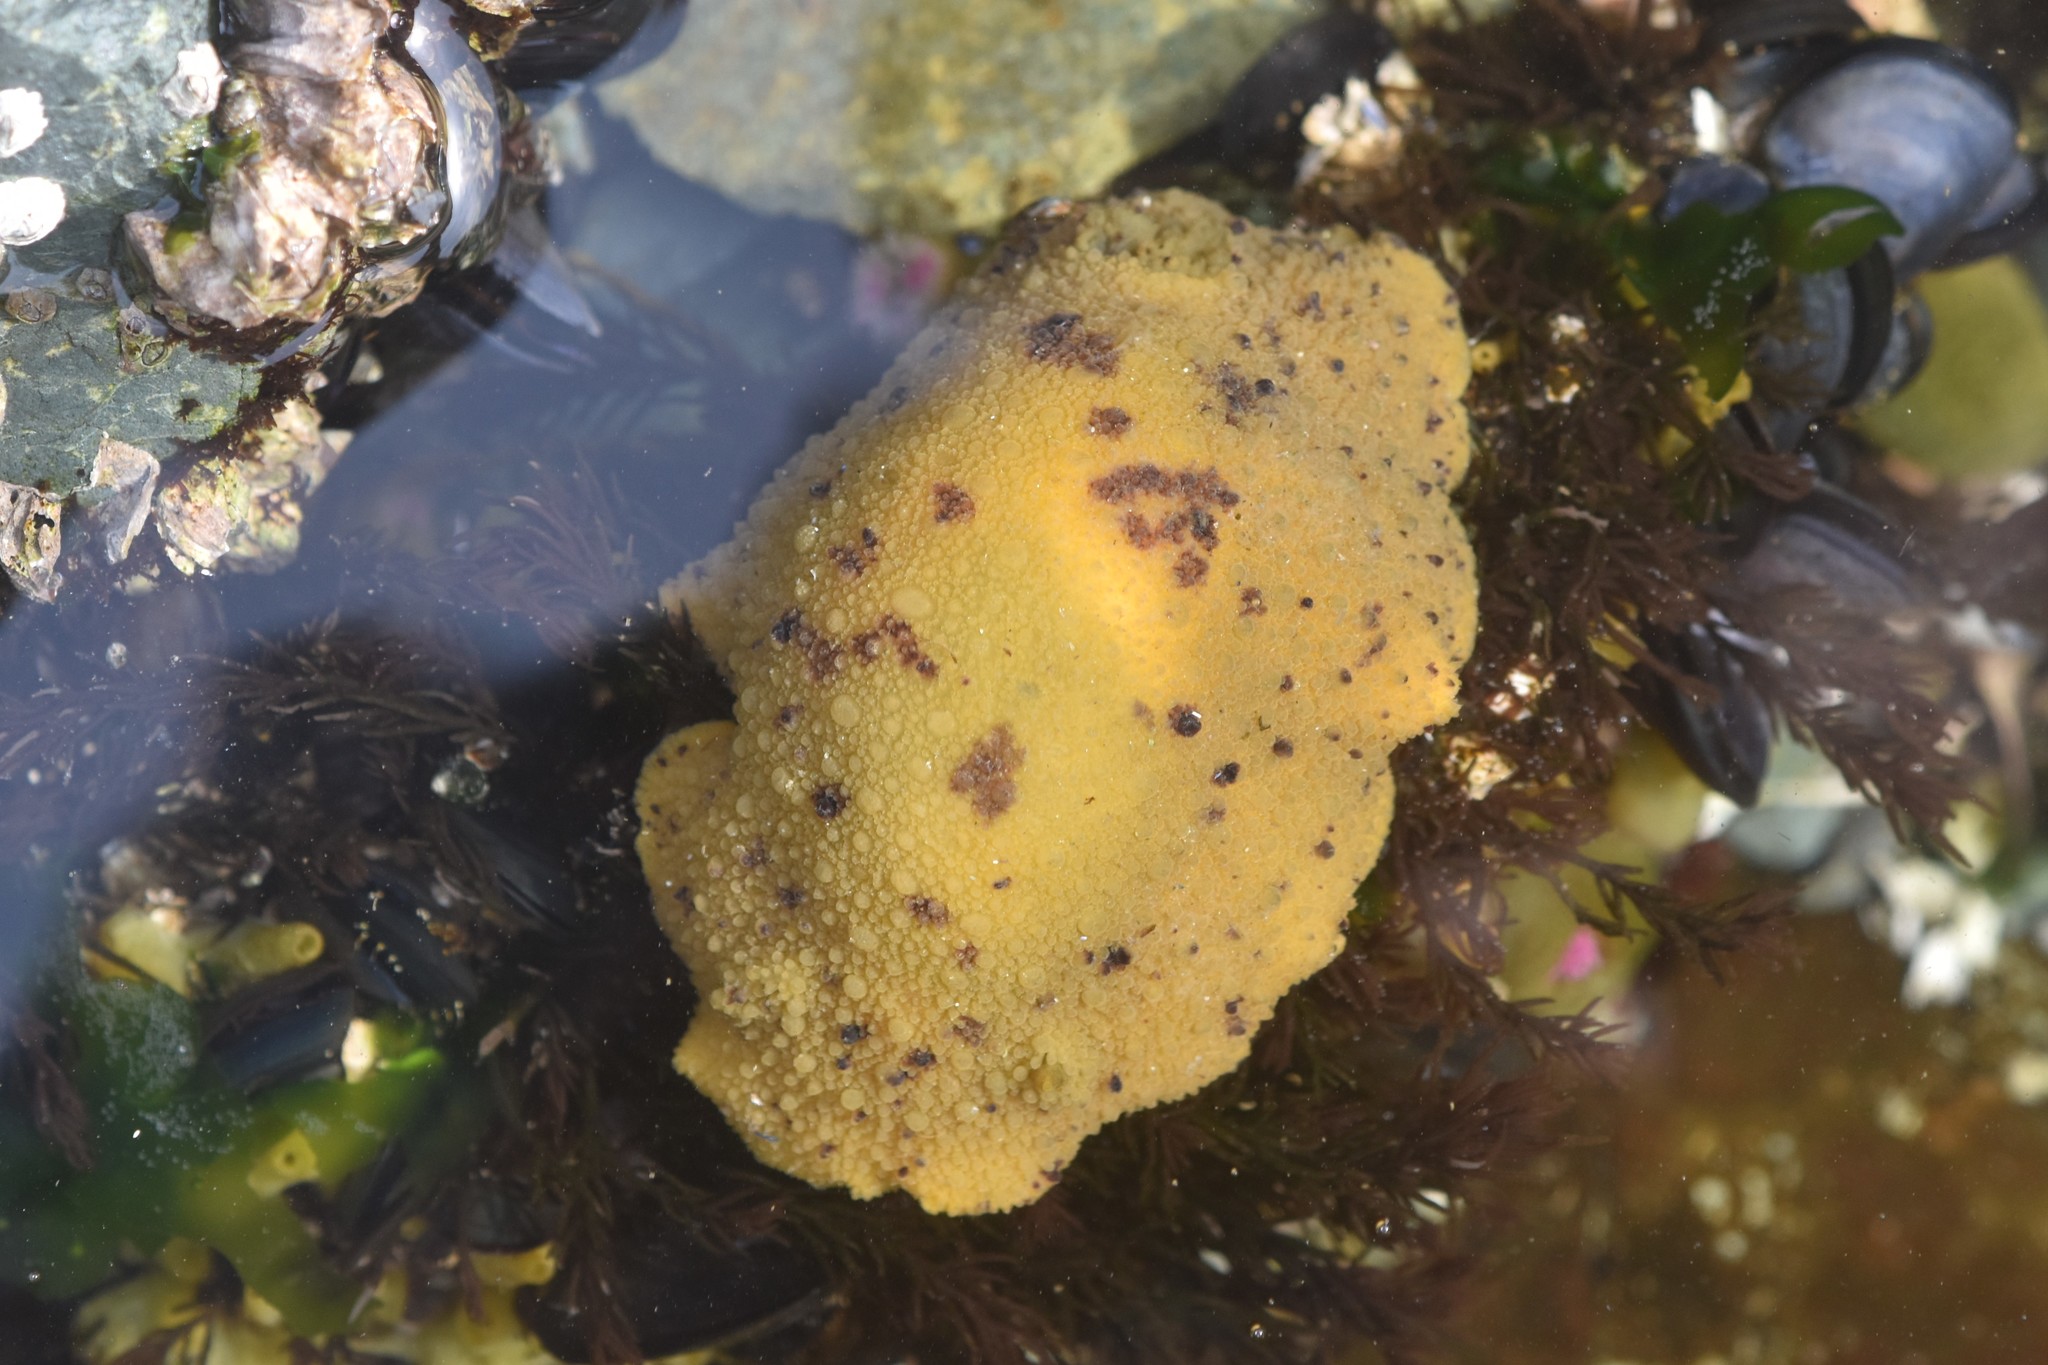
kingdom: Animalia
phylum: Mollusca
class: Gastropoda
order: Nudibranchia
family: Dorididae
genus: Doris
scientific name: Doris montereyensis
